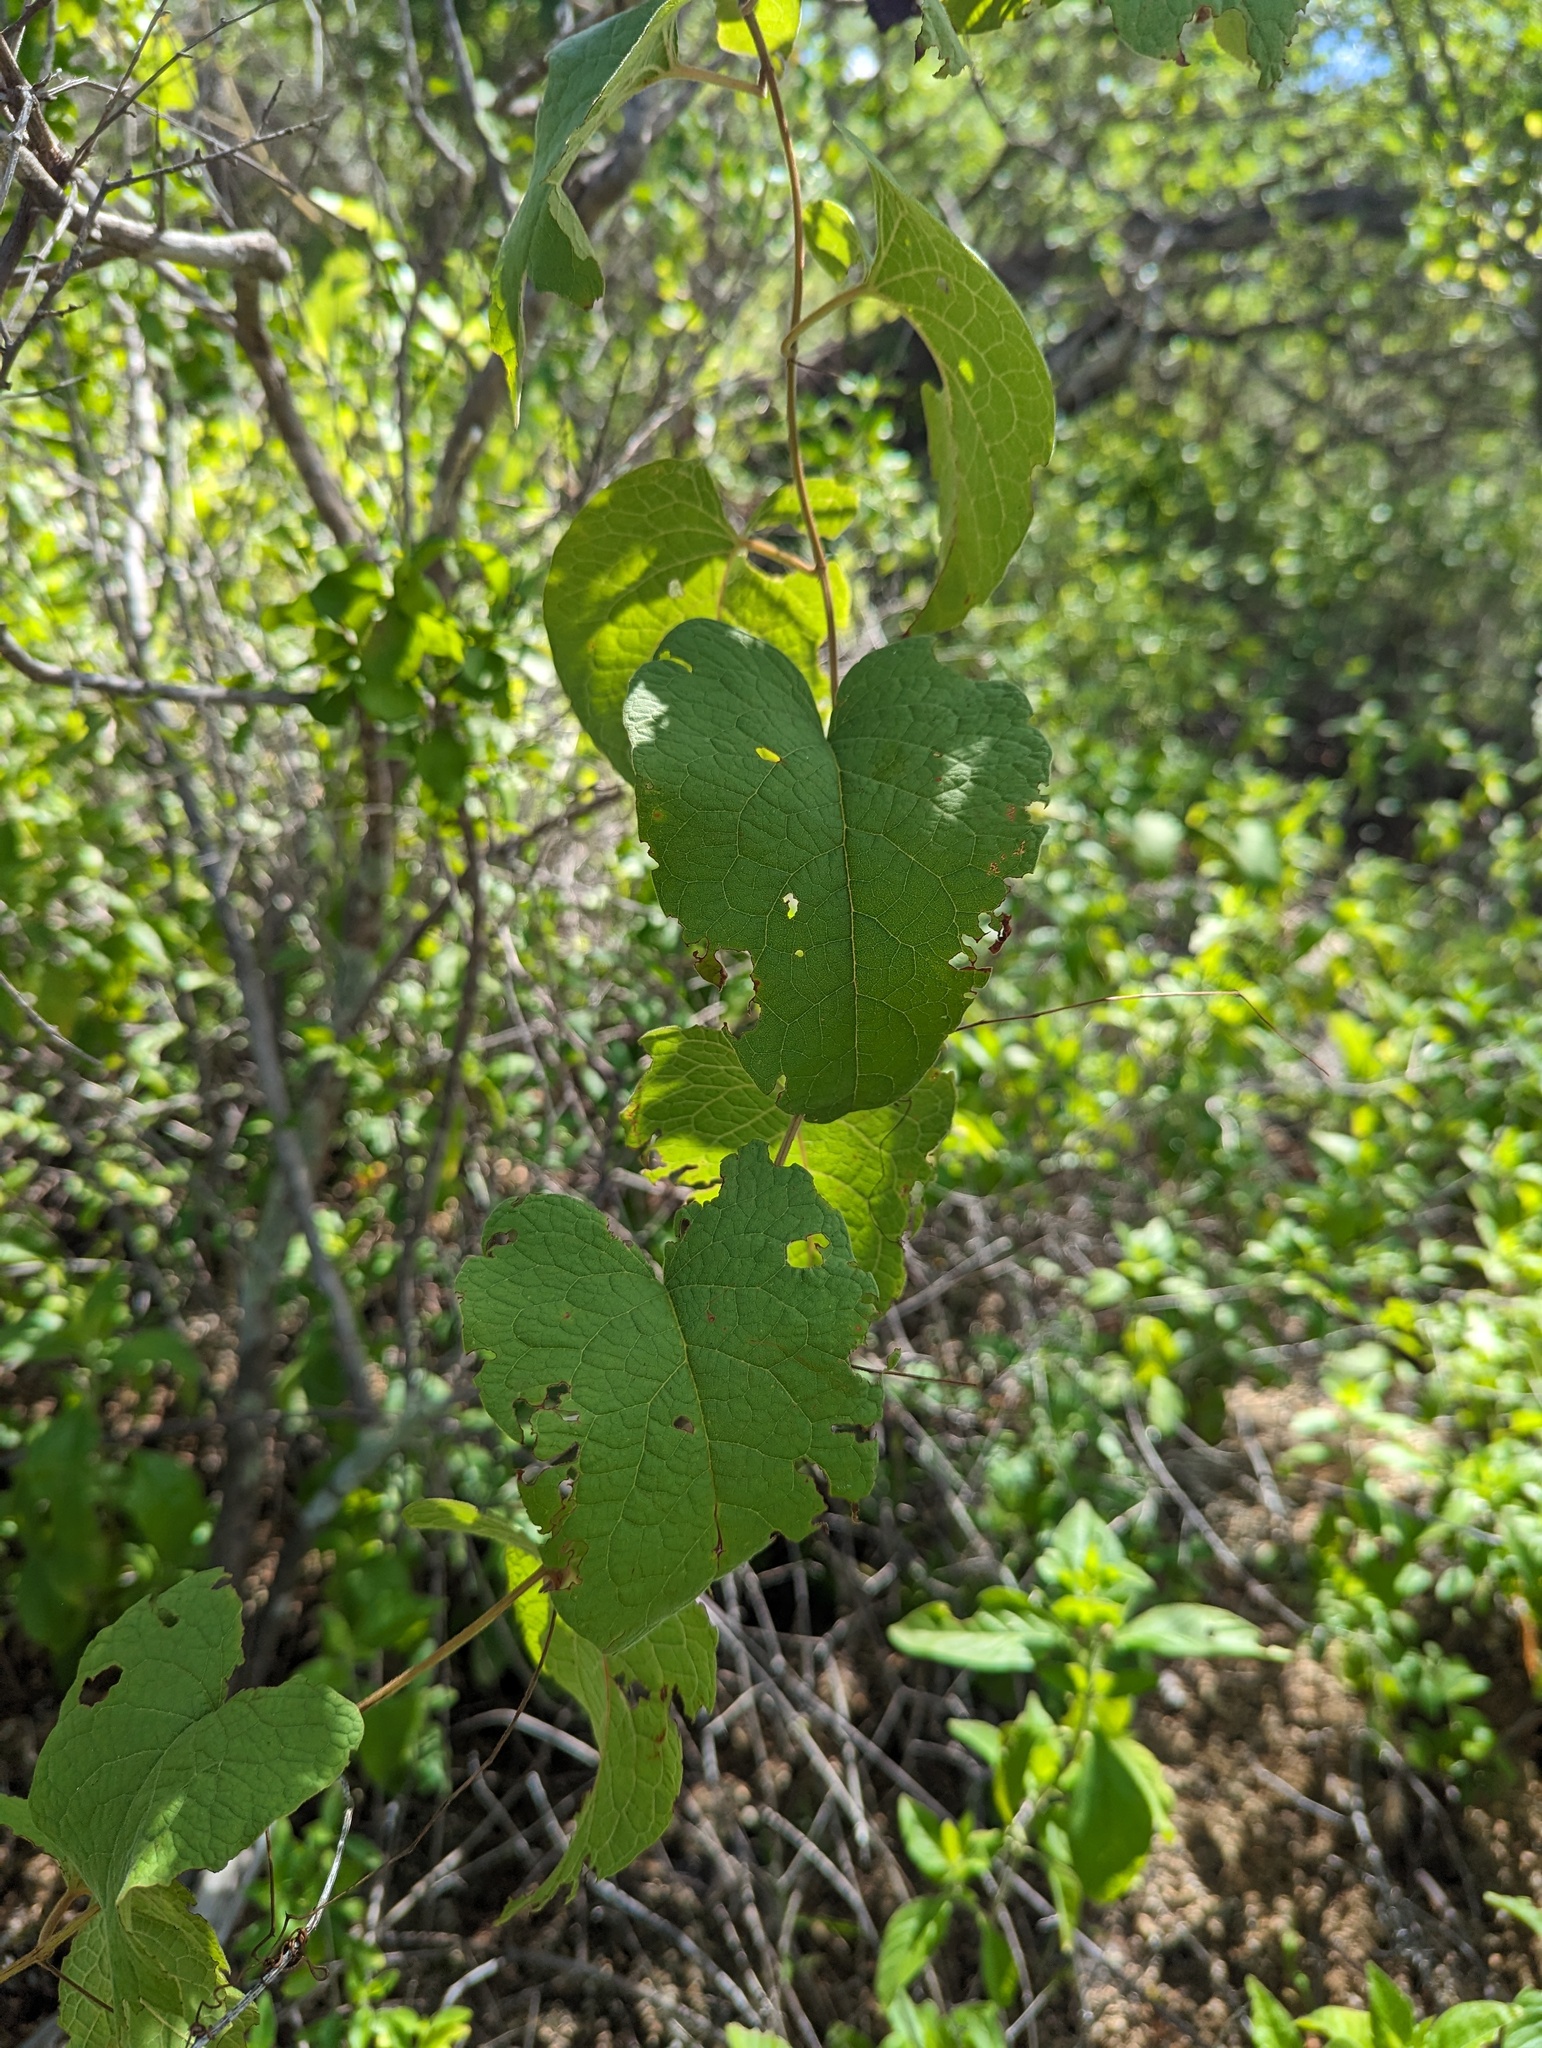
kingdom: Plantae
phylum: Tracheophyta
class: Magnoliopsida
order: Caryophyllales
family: Polygonaceae
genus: Antigonon
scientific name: Antigonon leptopus
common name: Coral vine
